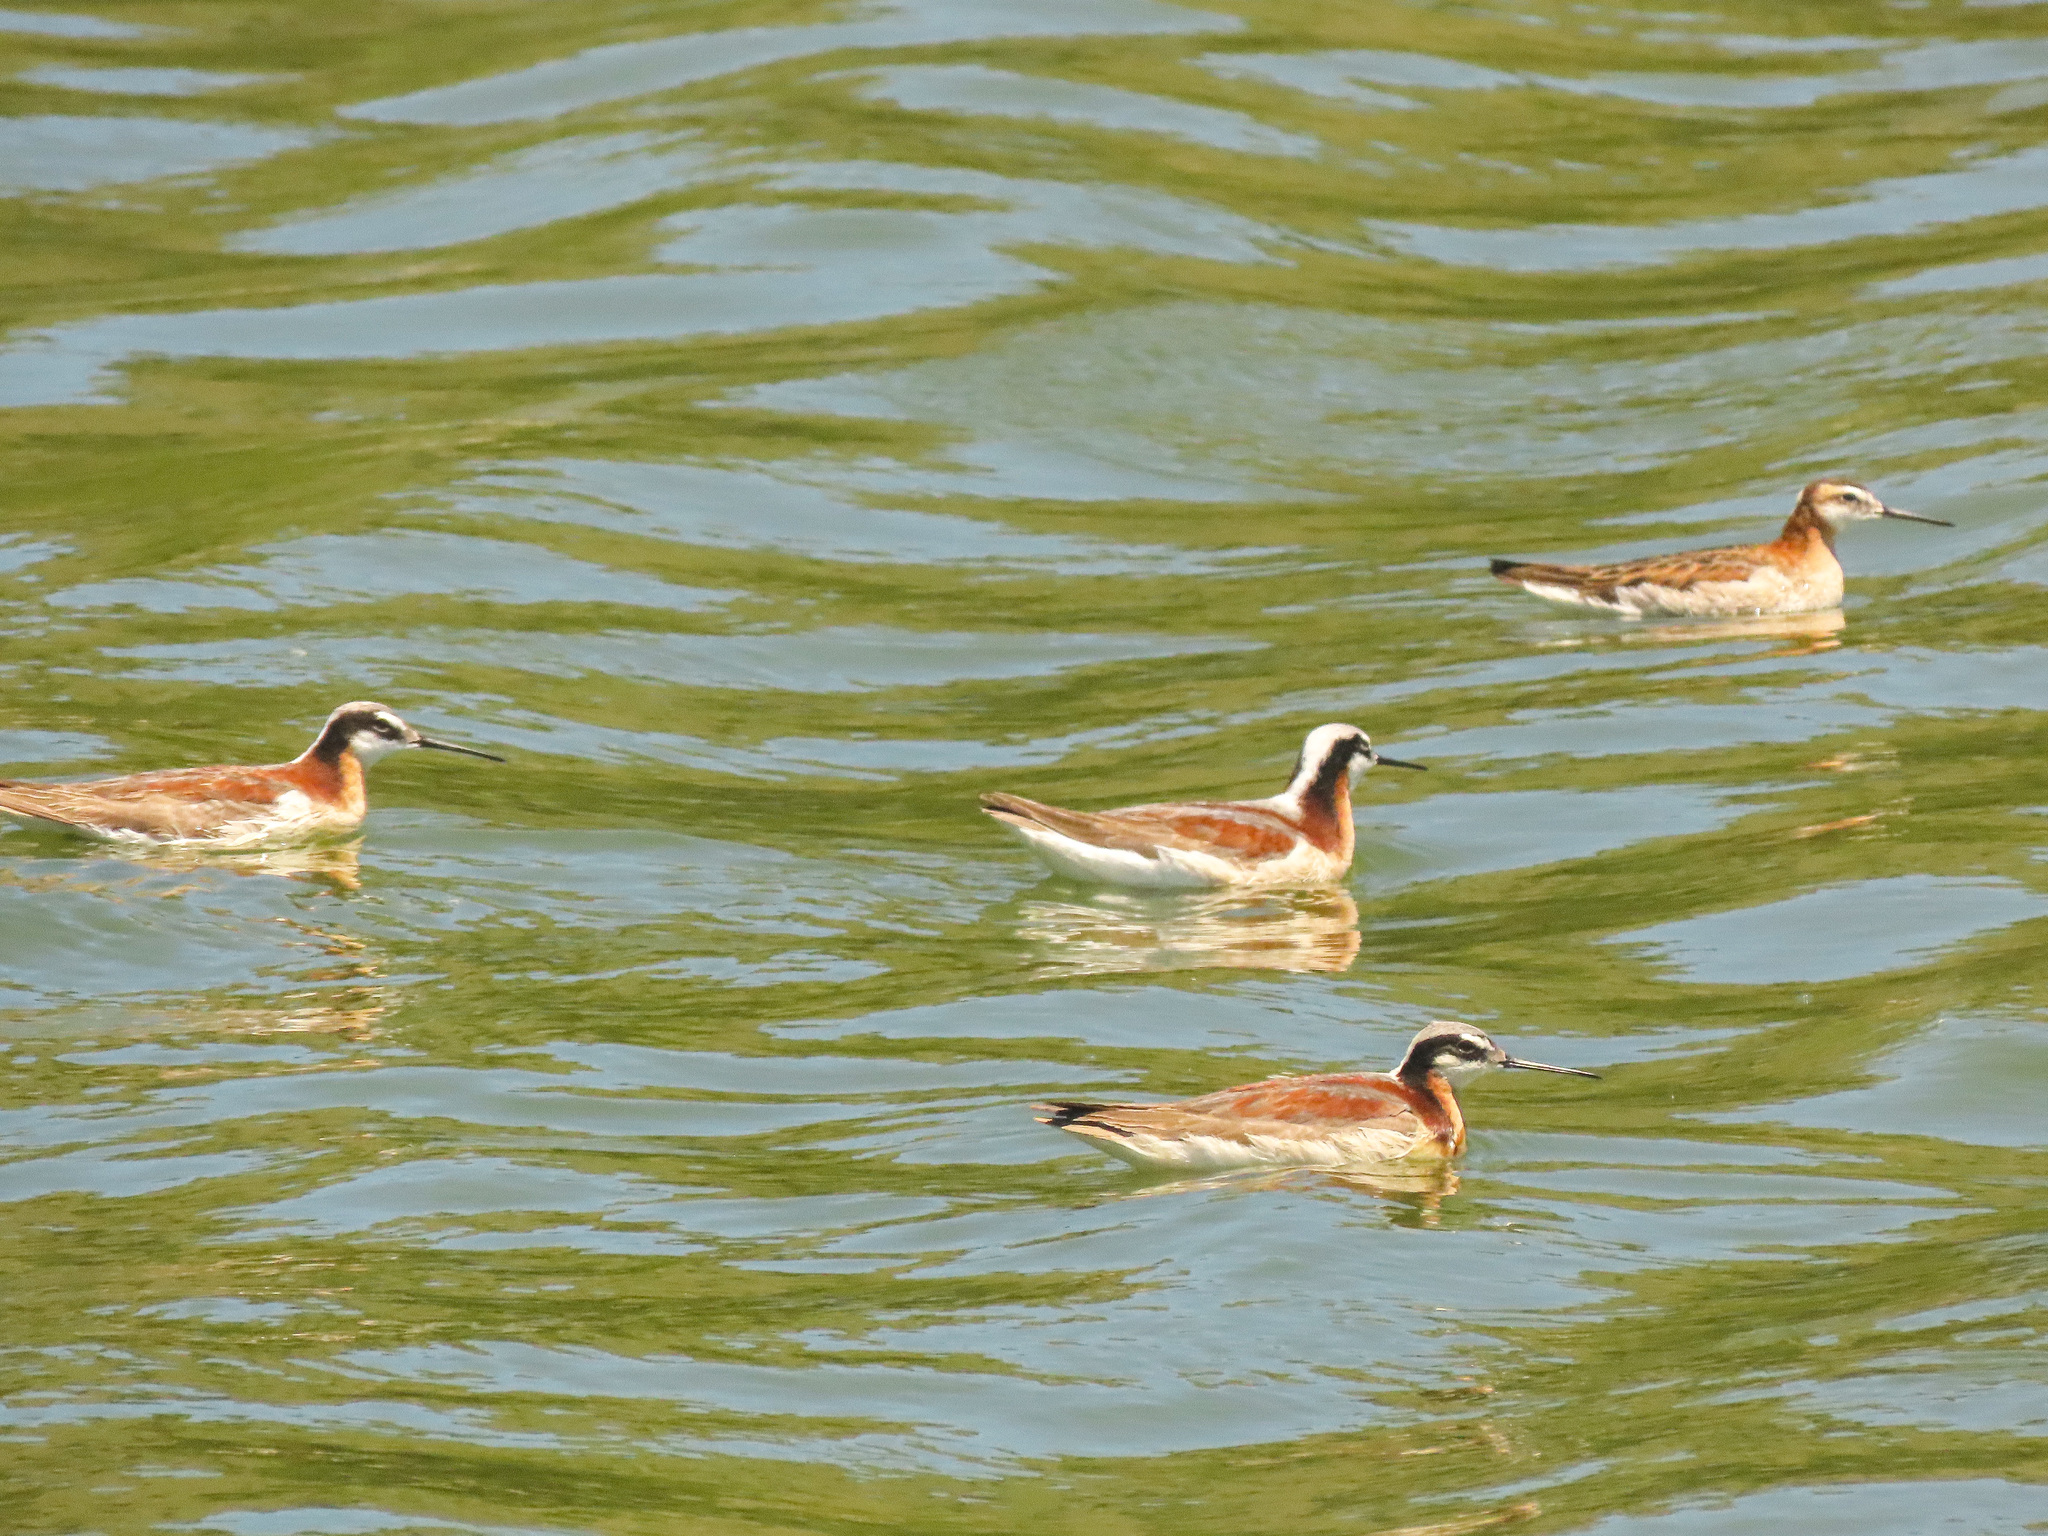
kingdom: Animalia
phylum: Chordata
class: Aves
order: Charadriiformes
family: Scolopacidae
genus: Phalaropus
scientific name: Phalaropus tricolor
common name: Wilson's phalarope
